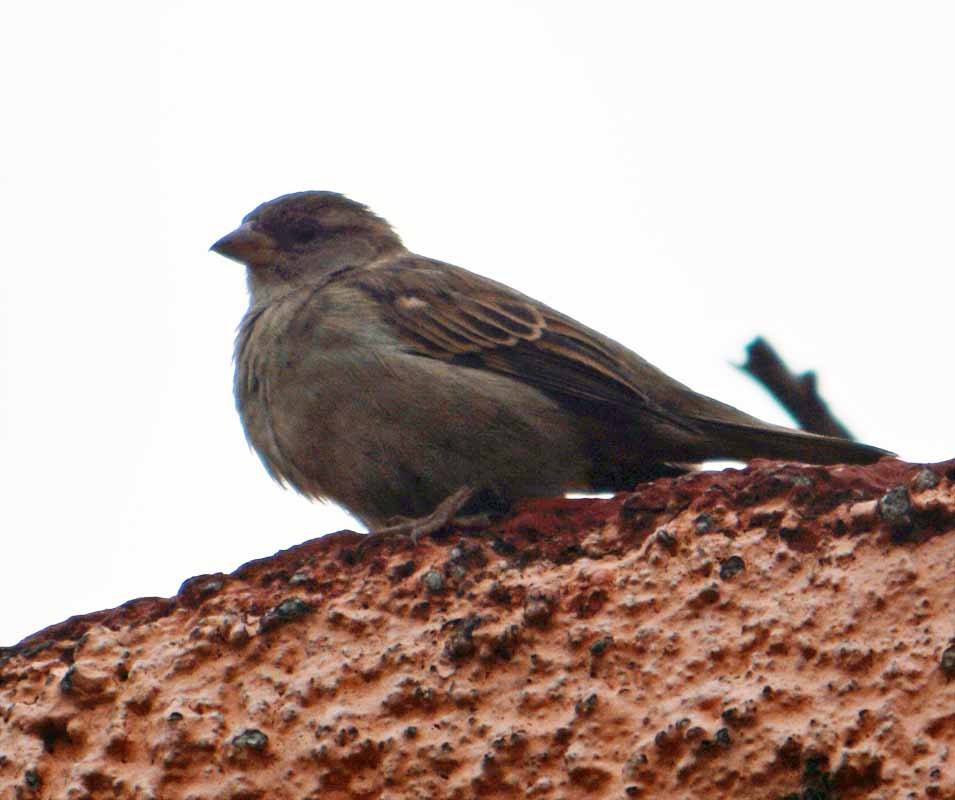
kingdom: Animalia
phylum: Chordata
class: Aves
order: Passeriformes
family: Passeridae
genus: Passer
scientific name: Passer domesticus
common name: House sparrow
